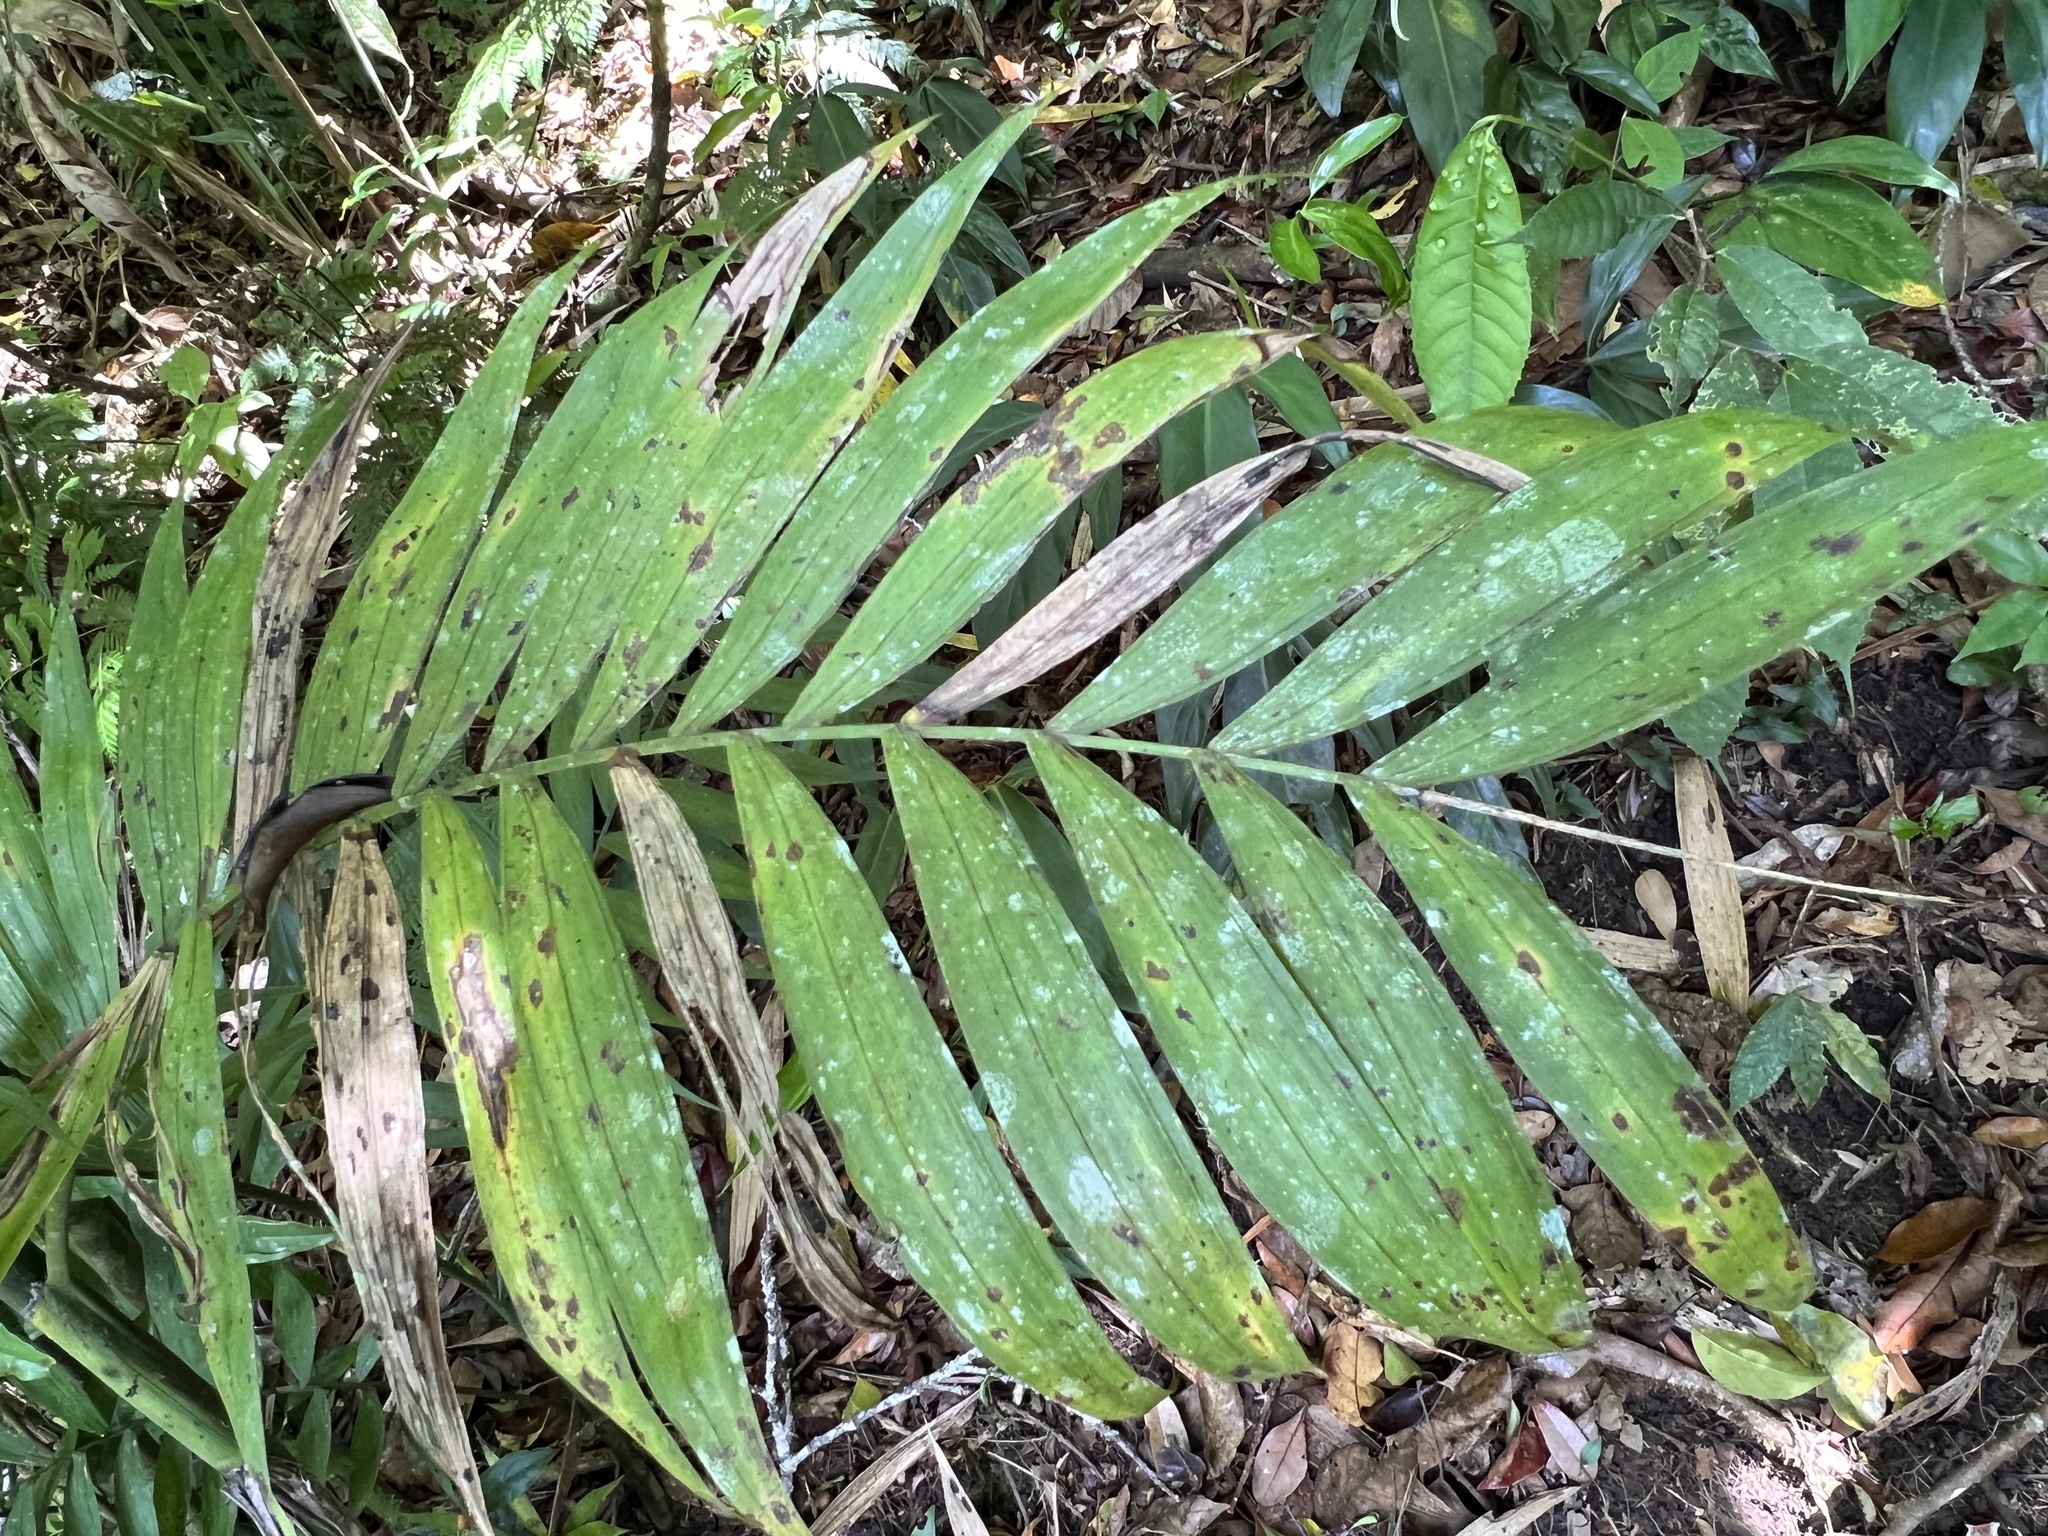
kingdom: Plantae
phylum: Tracheophyta
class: Liliopsida
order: Arecales
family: Arecaceae
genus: Chamaedorea
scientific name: Chamaedorea costaricana
